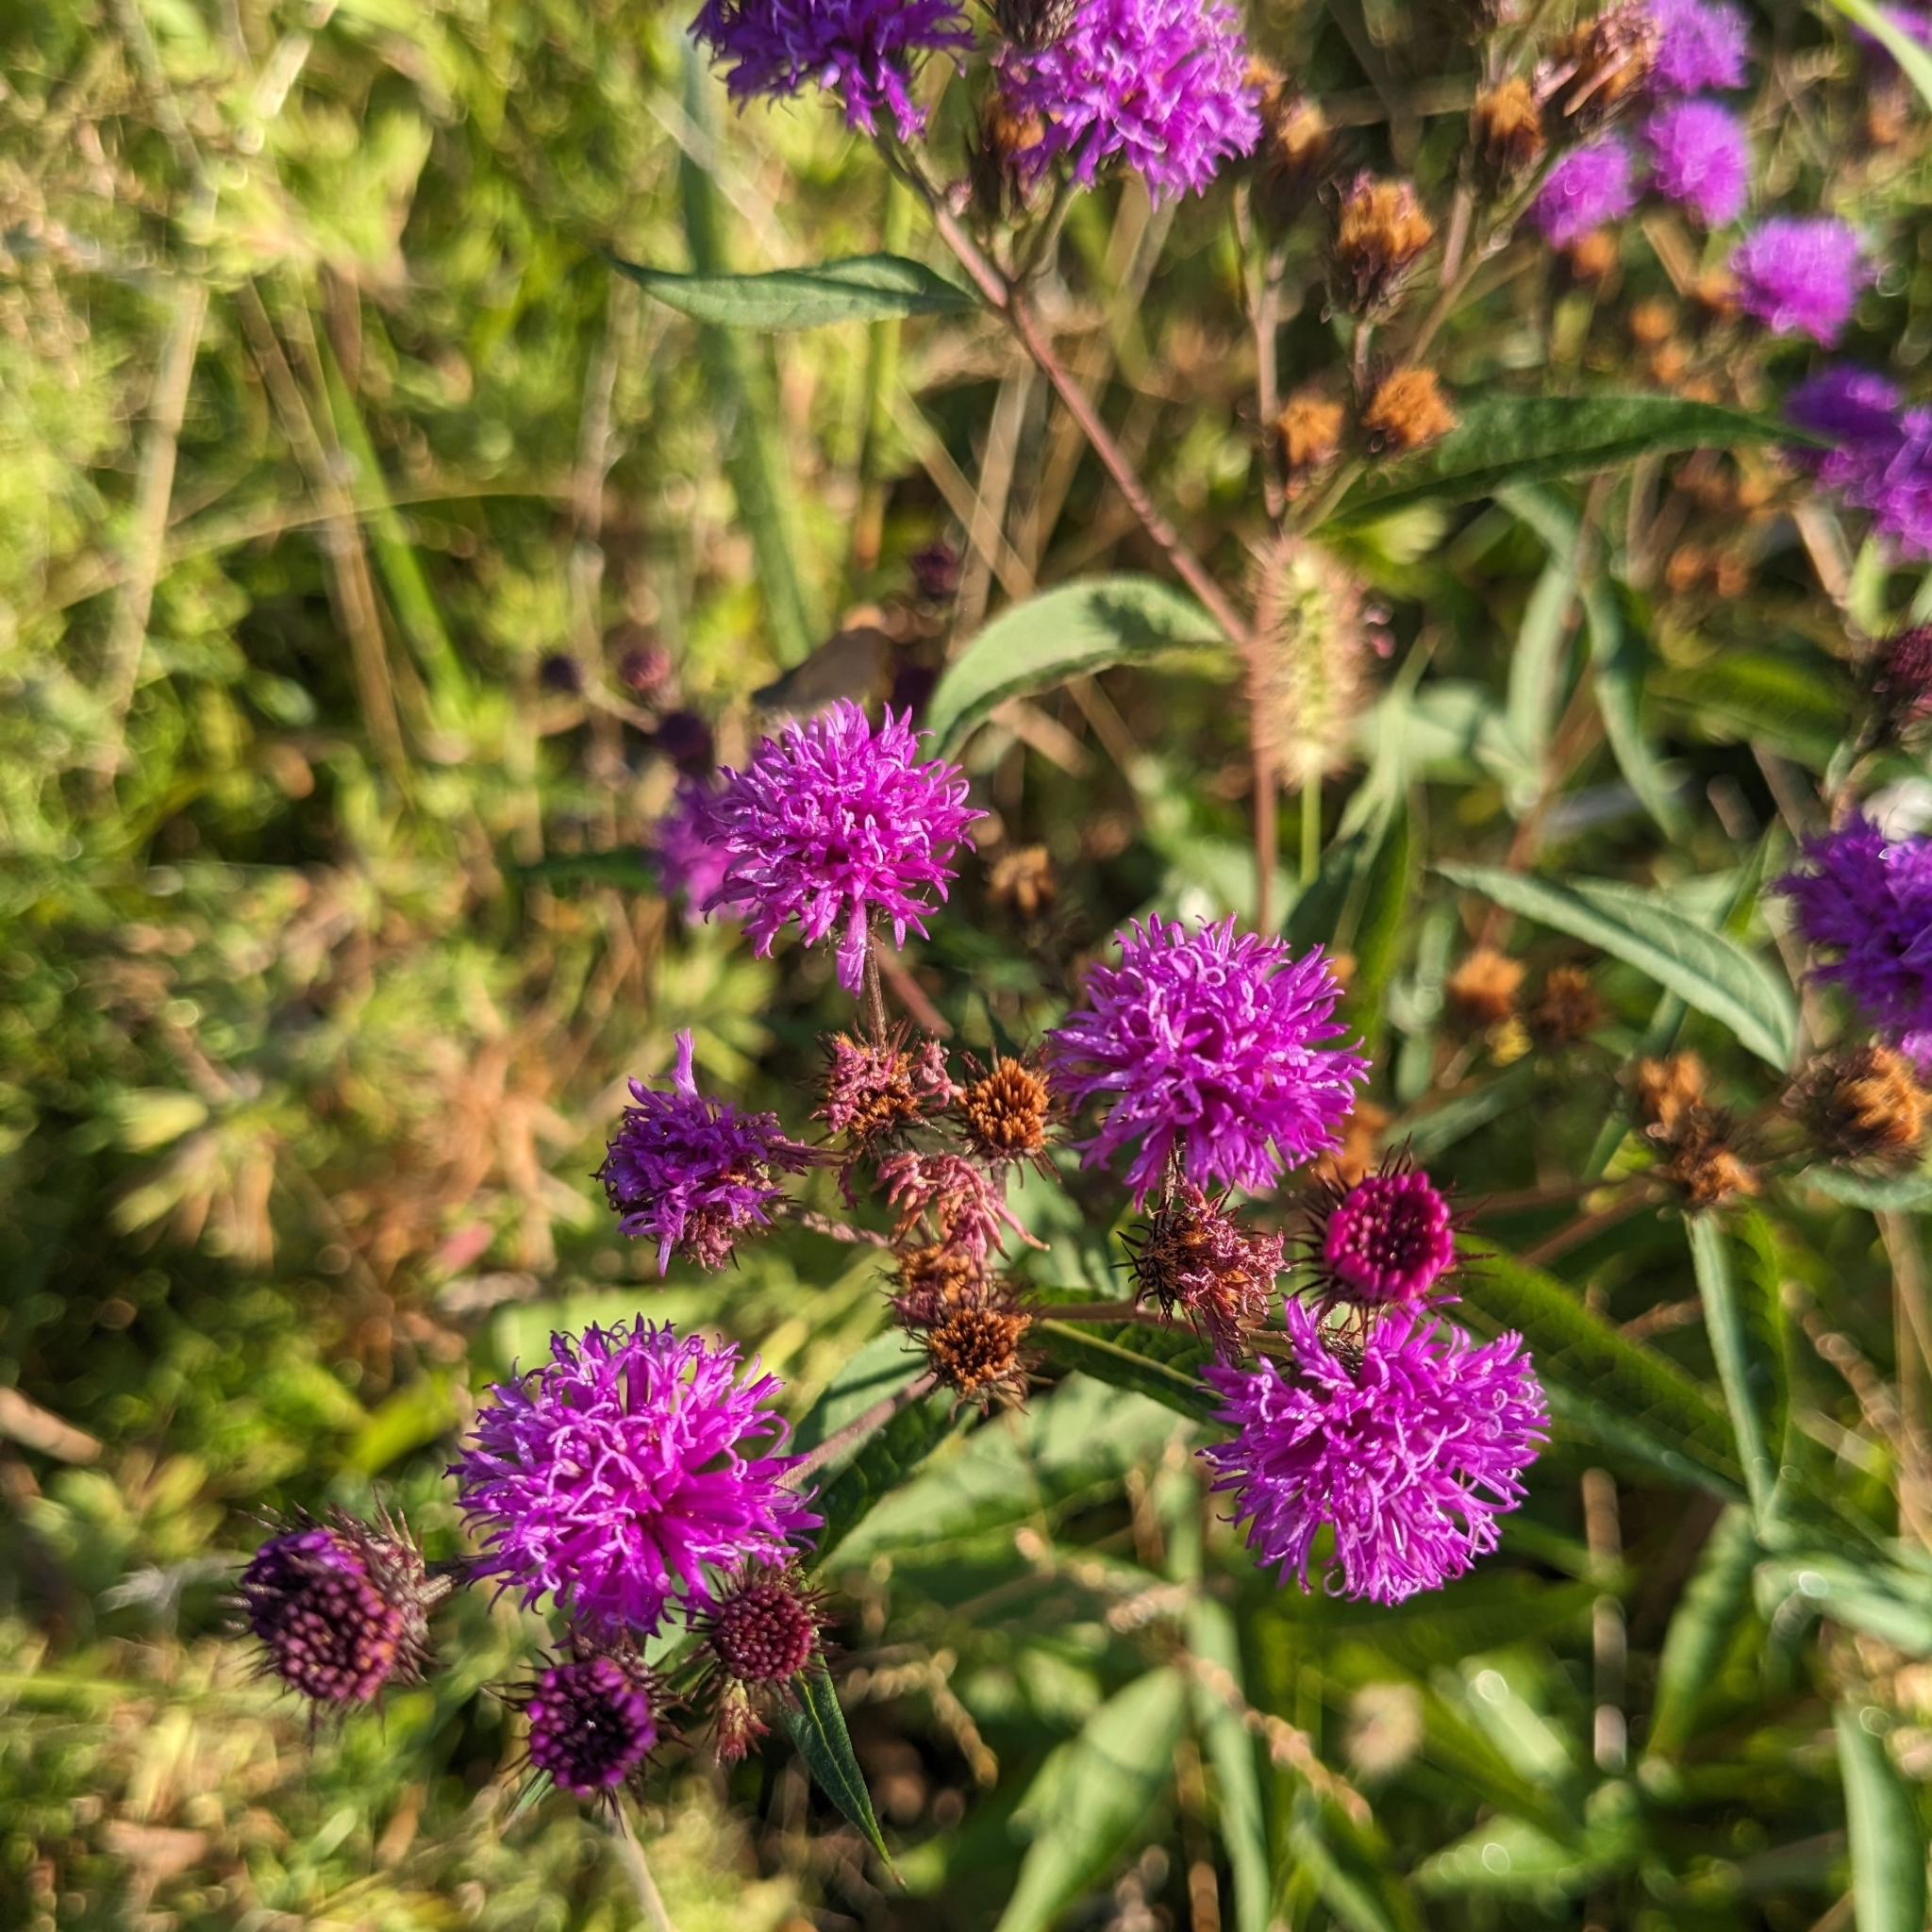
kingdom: Plantae
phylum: Tracheophyta
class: Magnoliopsida
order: Asterales
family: Asteraceae
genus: Vernonia
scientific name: Vernonia noveboracensis
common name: New york ironweed
